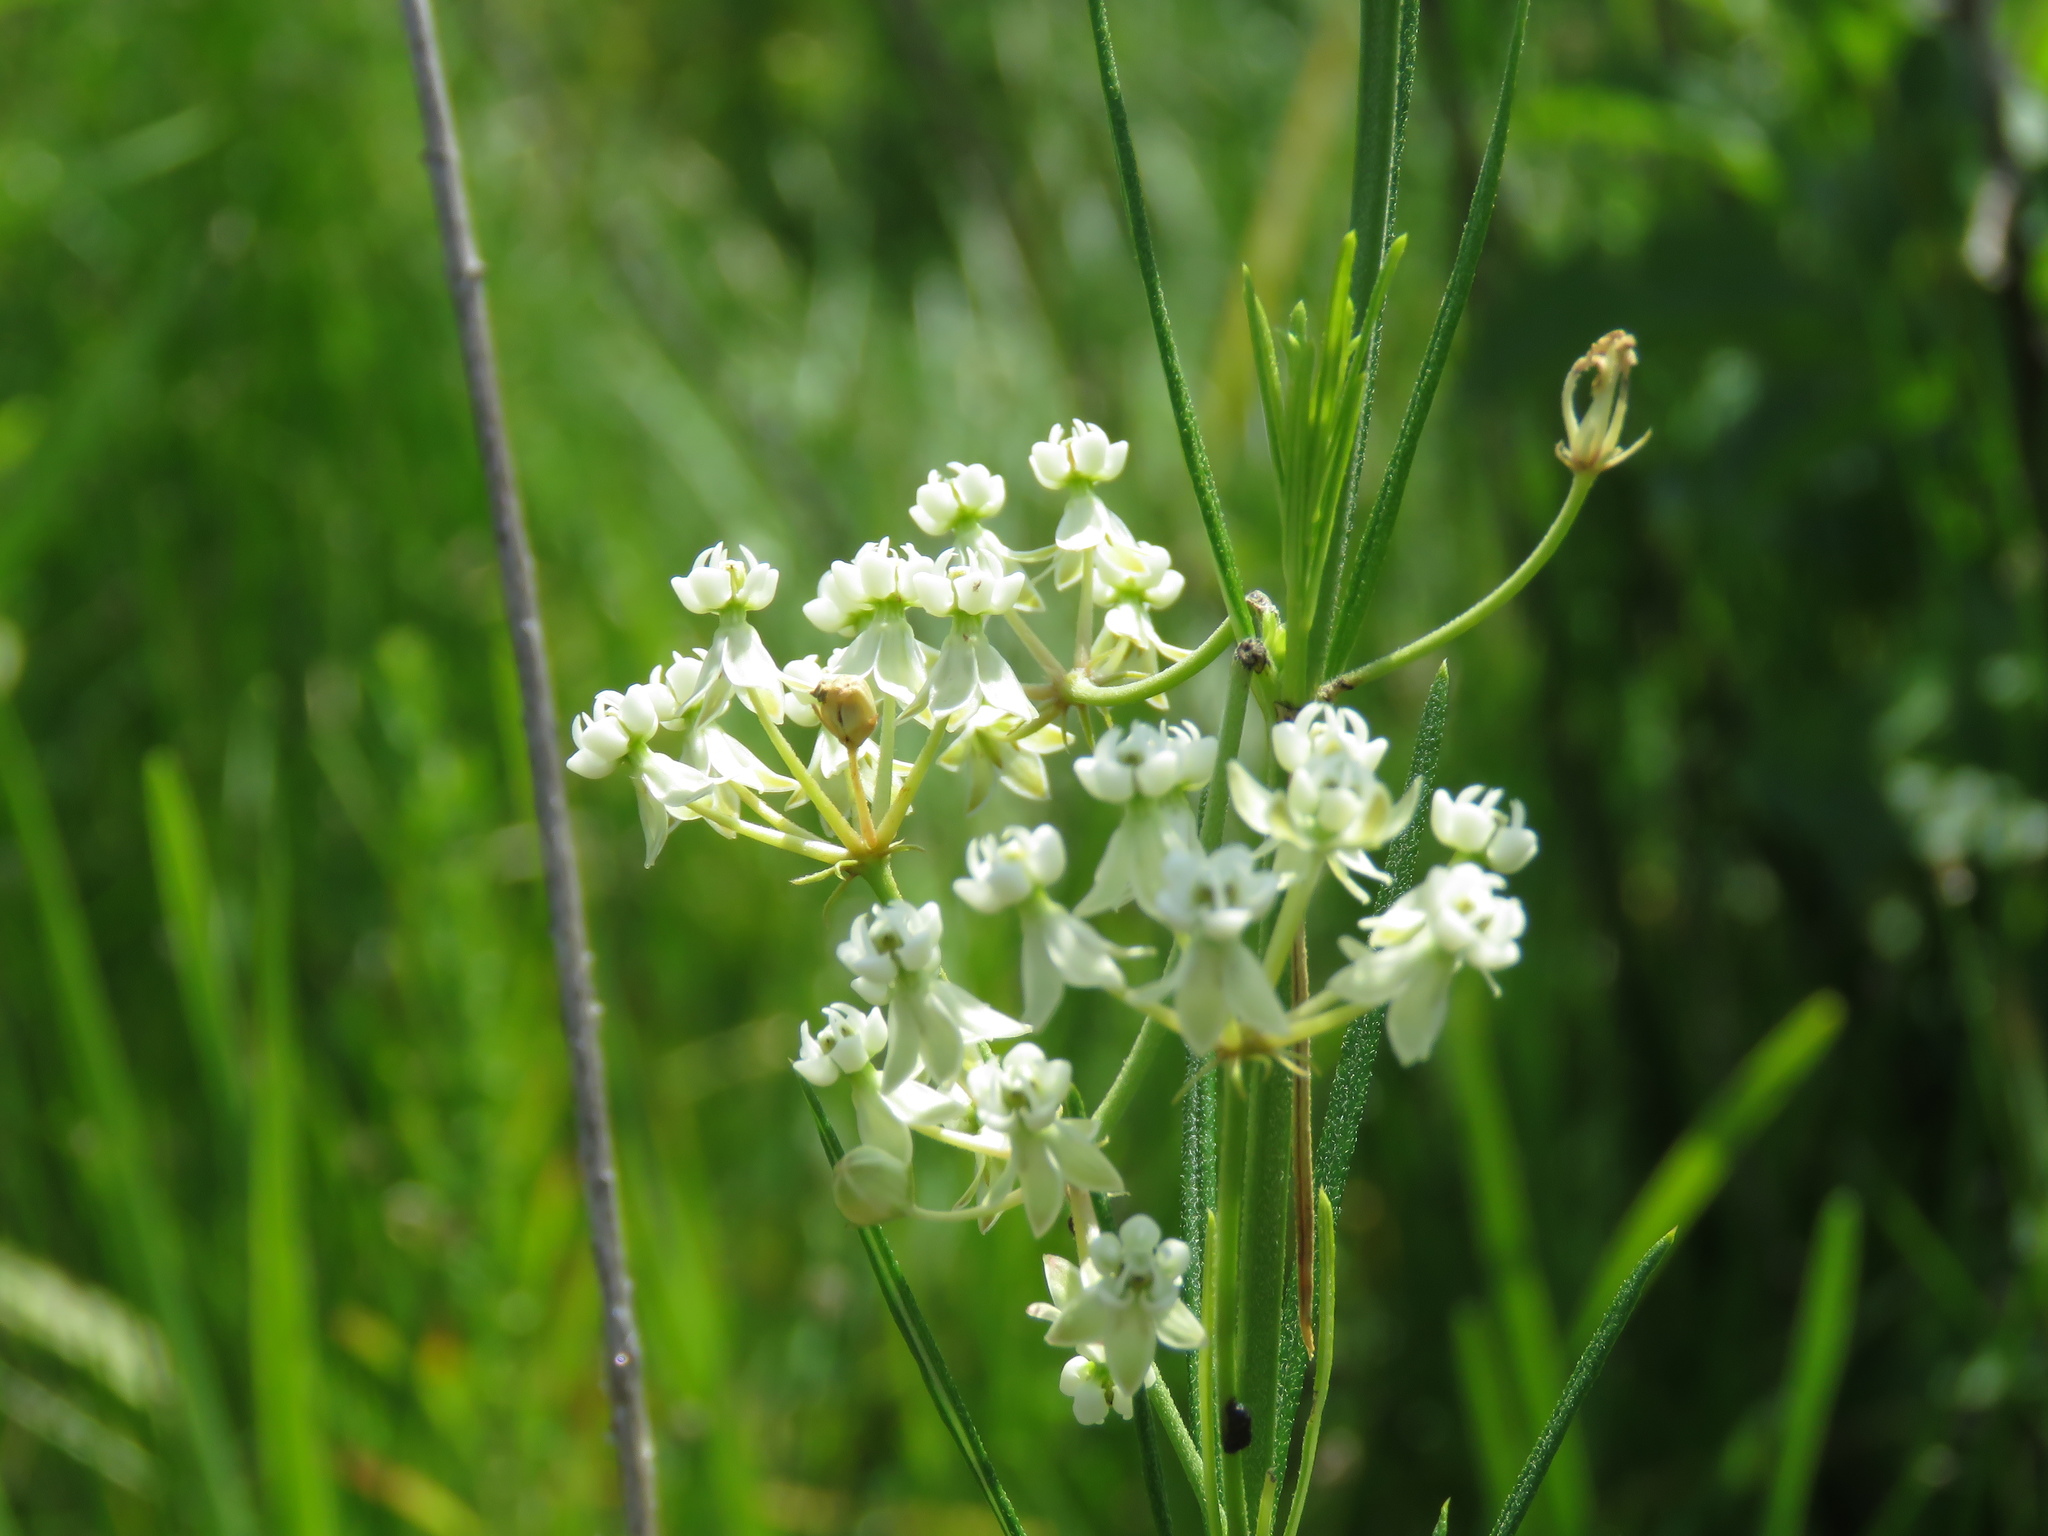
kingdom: Plantae
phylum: Tracheophyta
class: Magnoliopsida
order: Gentianales
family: Apocynaceae
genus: Asclepias
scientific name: Asclepias verticillata
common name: Eastern whorled milkweed
